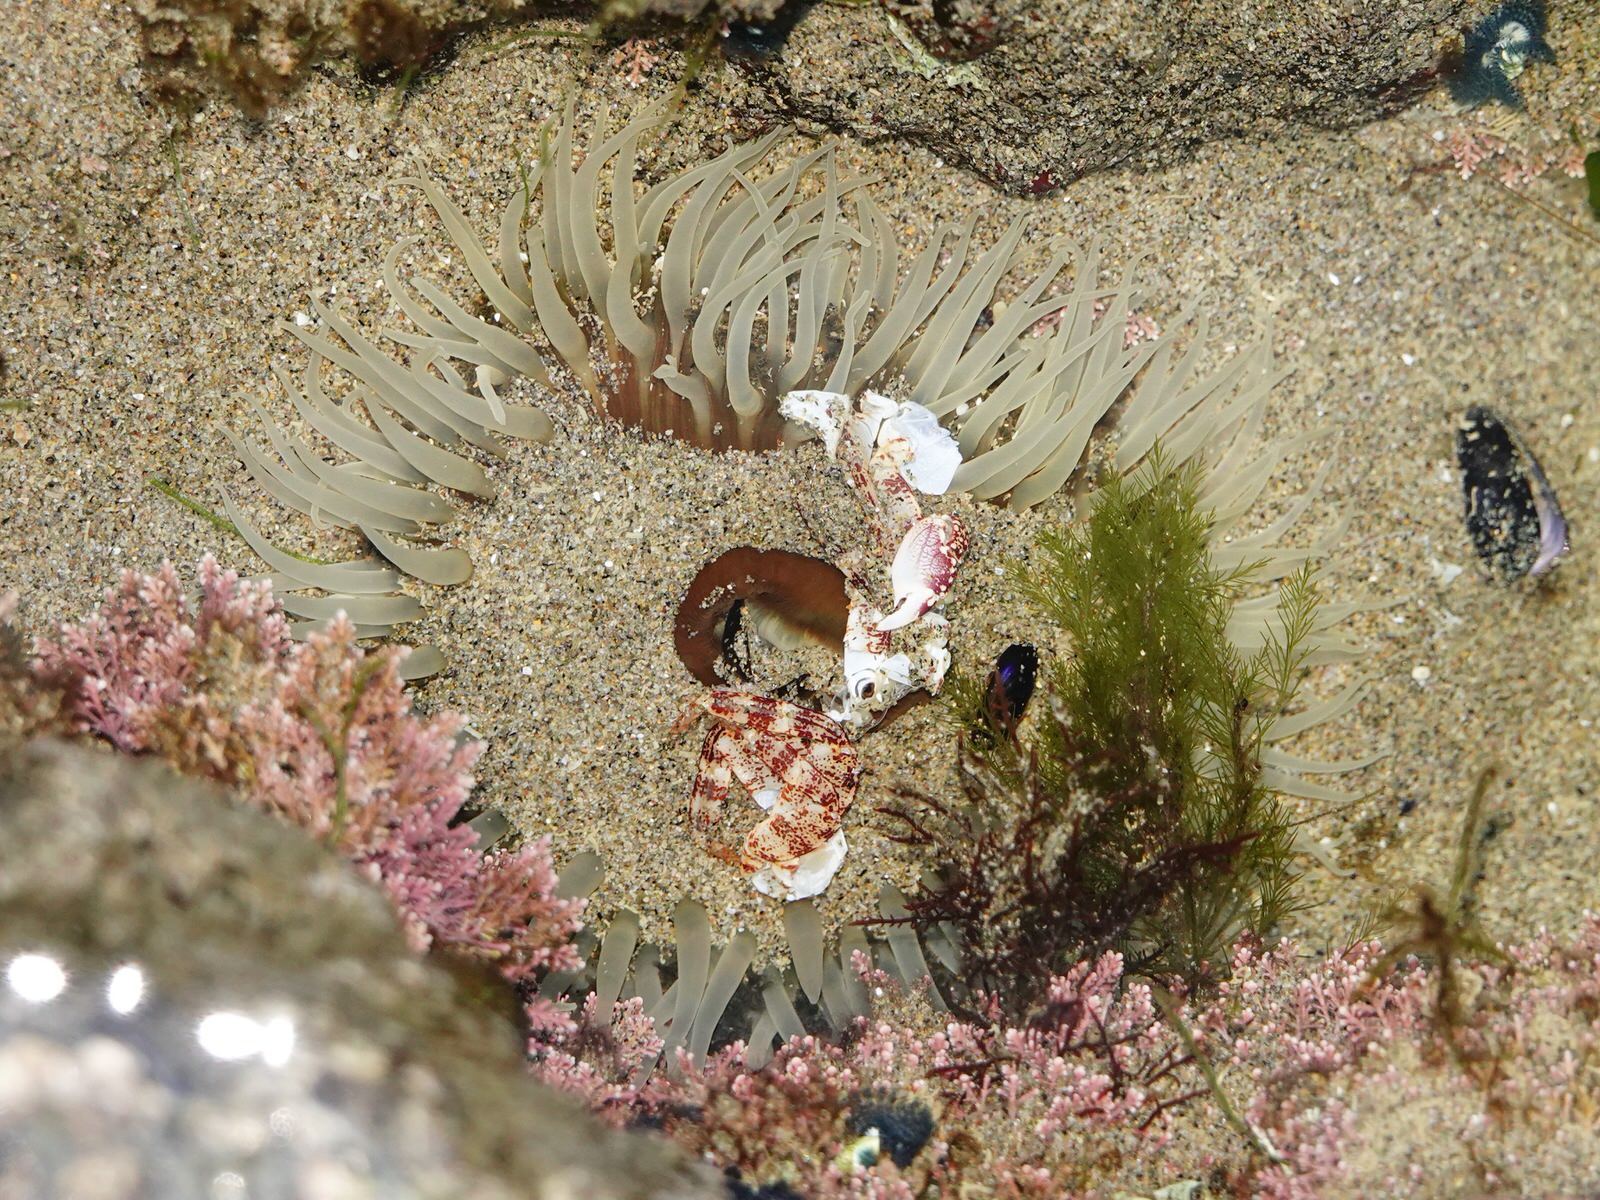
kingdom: Animalia
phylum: Cnidaria
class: Anthozoa
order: Actiniaria
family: Actiniidae
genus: Oulactis
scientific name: Oulactis magna
